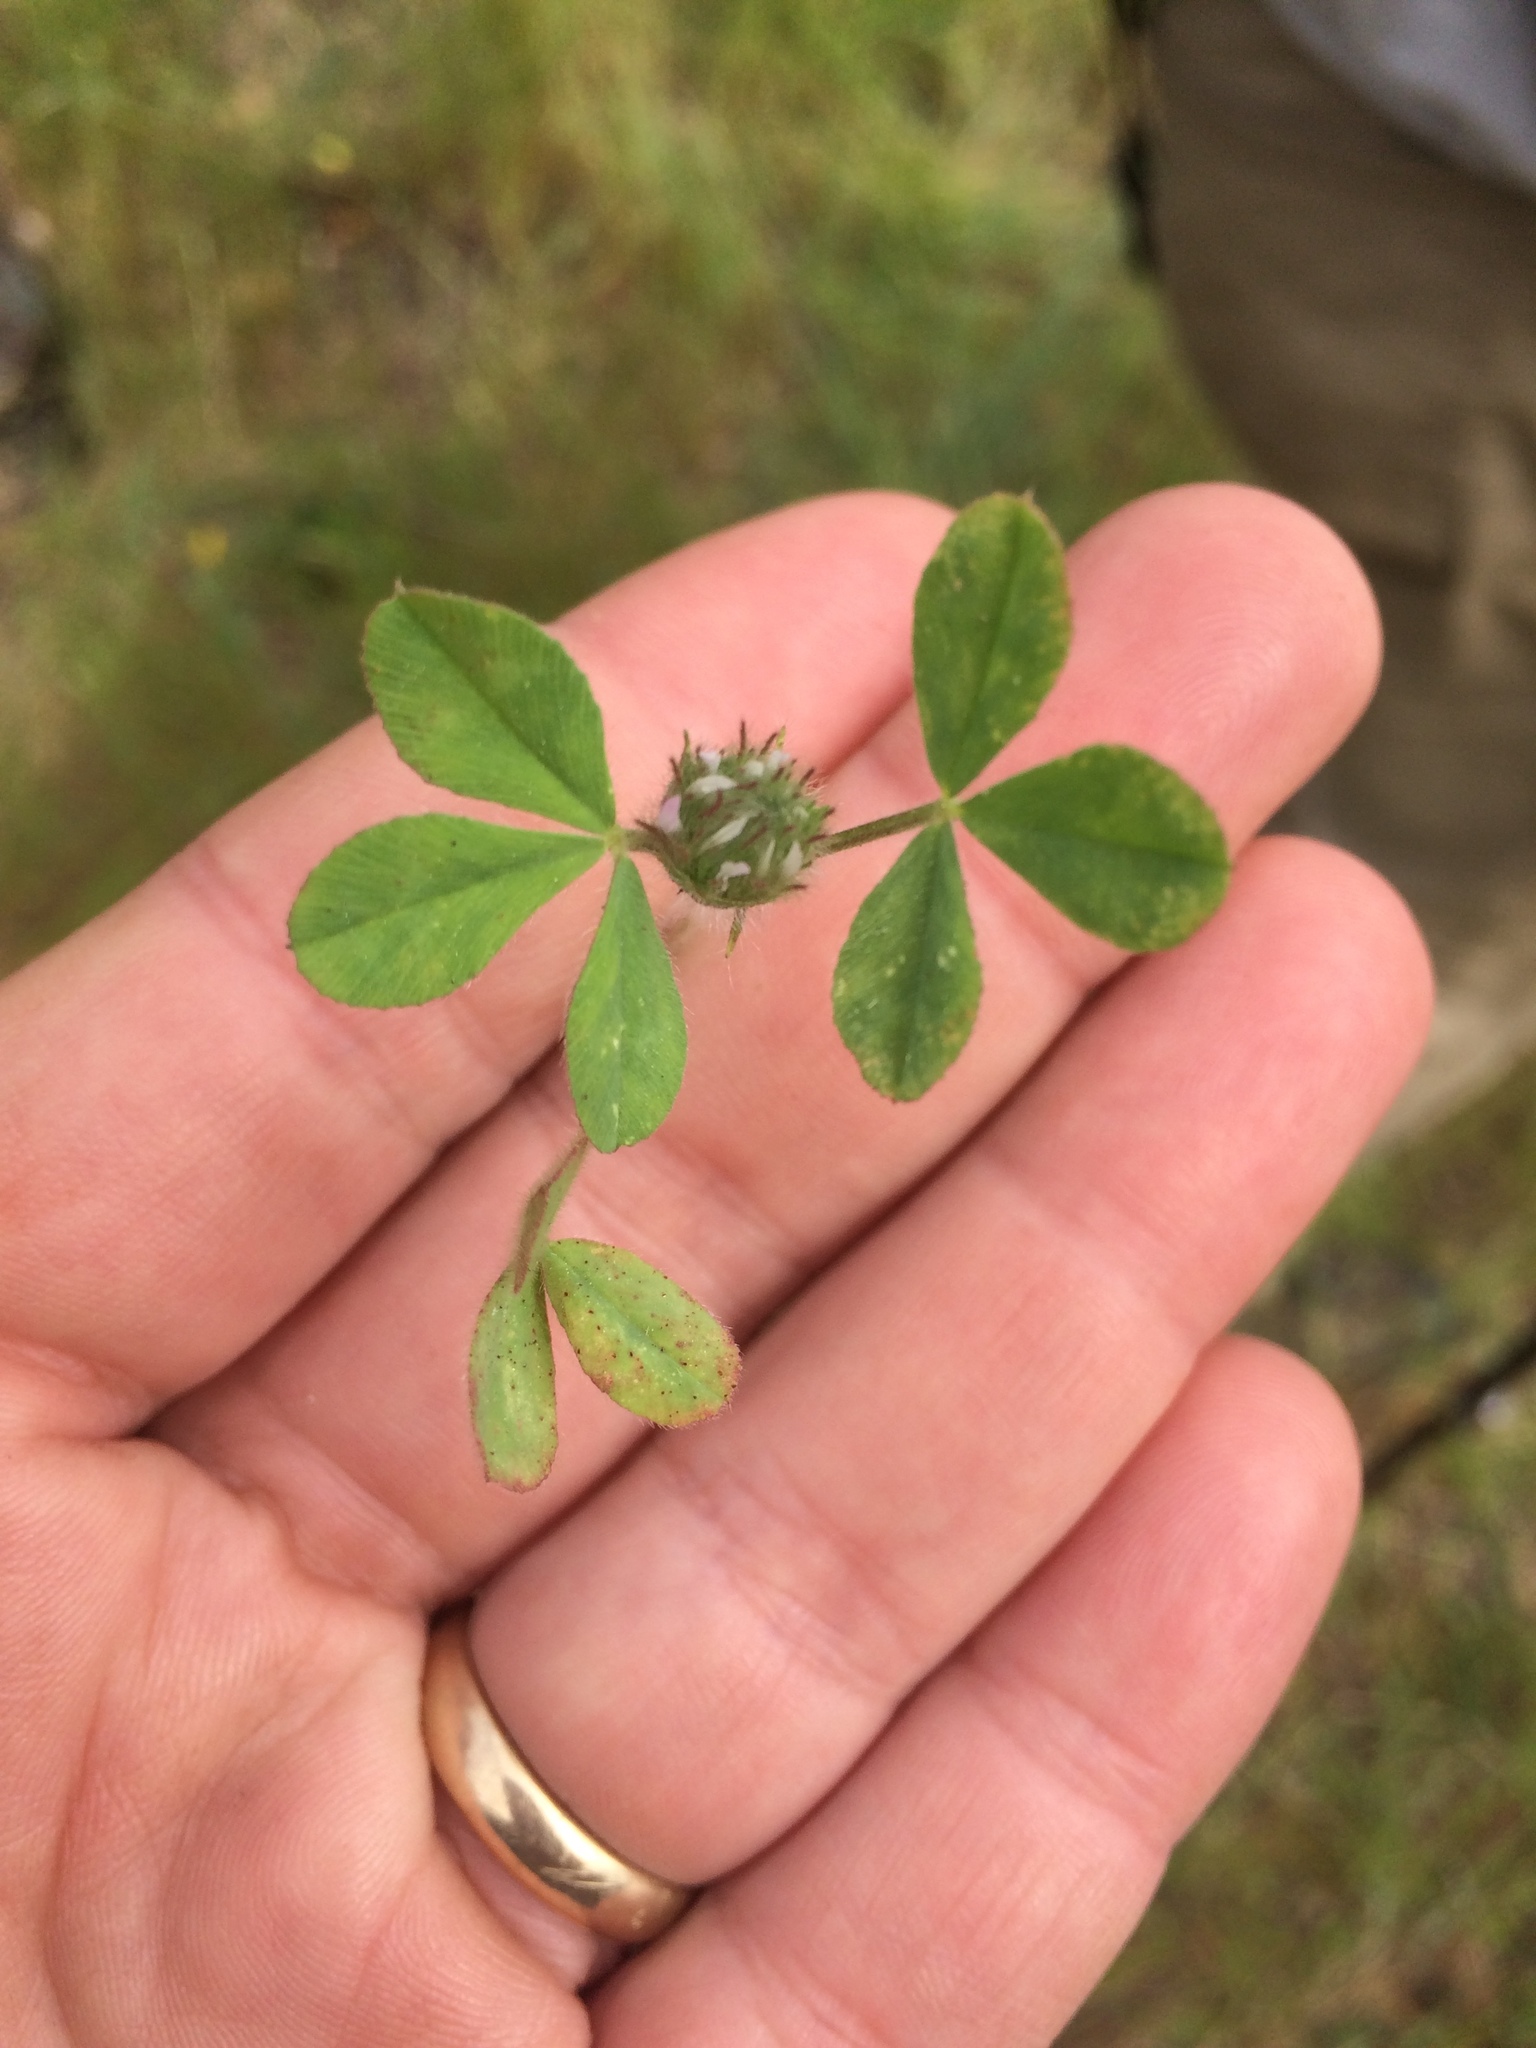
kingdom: Plantae
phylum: Tracheophyta
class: Magnoliopsida
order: Fabales
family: Fabaceae
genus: Trifolium
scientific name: Trifolium hirtum
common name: Rose clover
